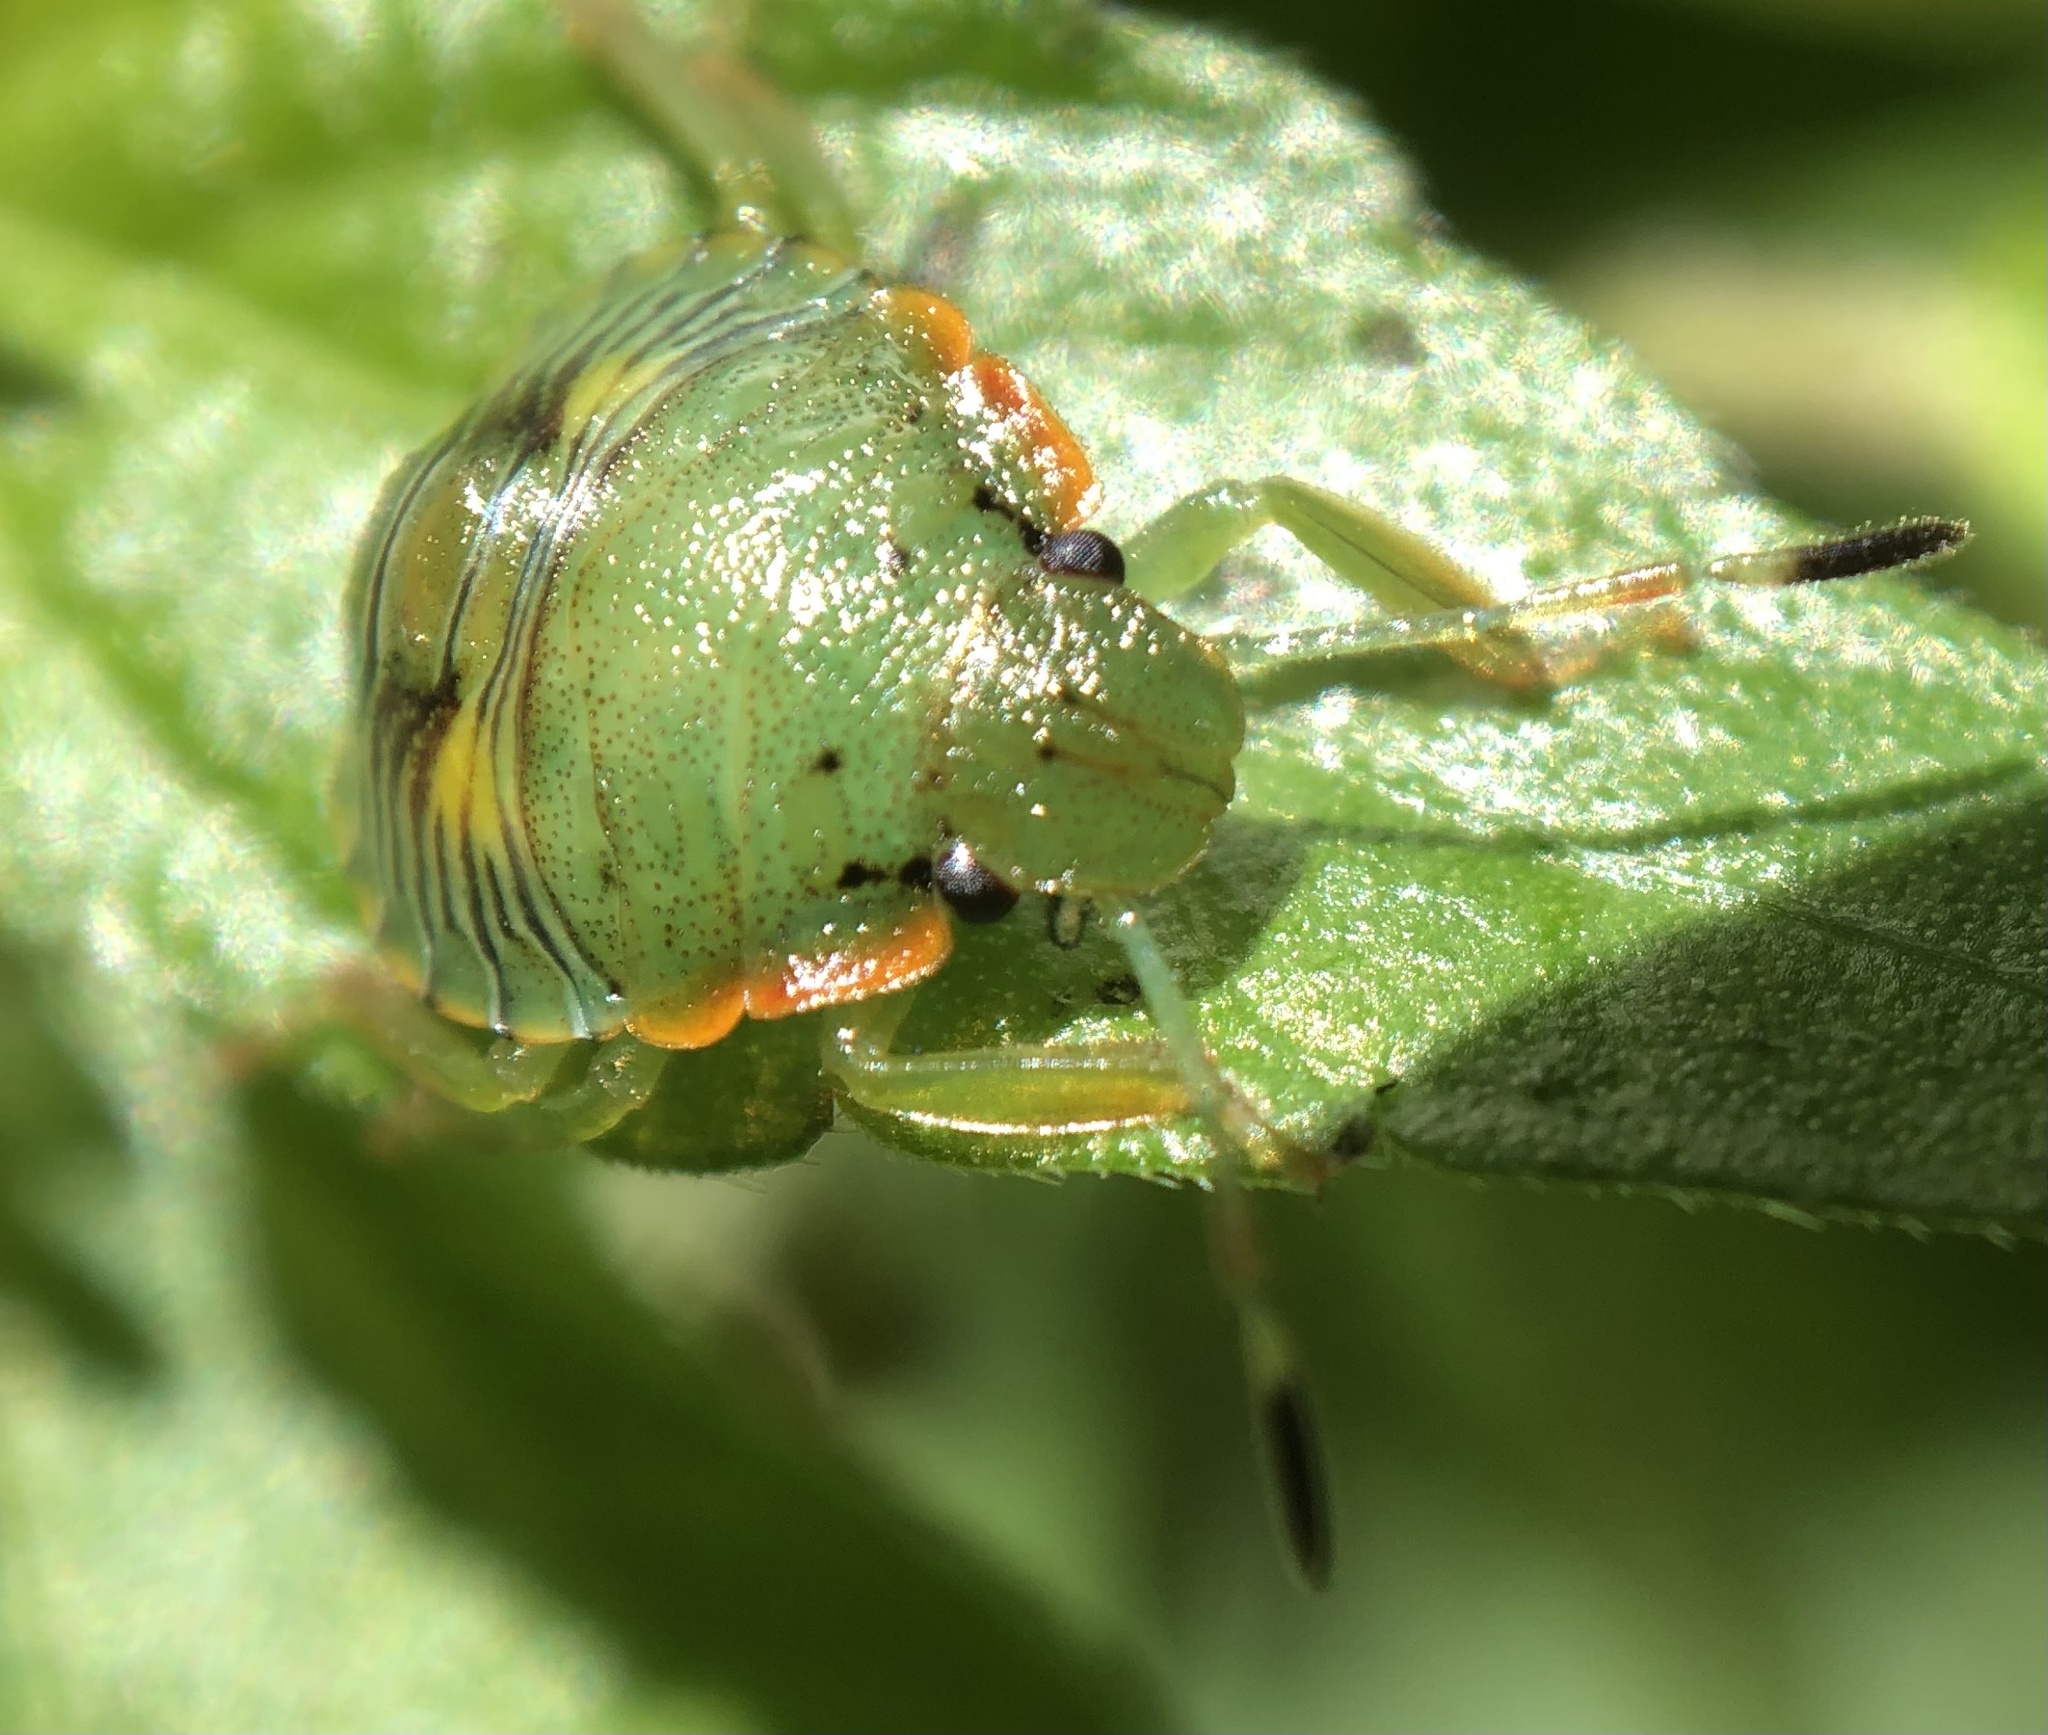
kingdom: Animalia
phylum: Arthropoda
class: Insecta
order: Hemiptera
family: Pentatomidae
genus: Chinavia
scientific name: Chinavia hilaris
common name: Green stink bug
